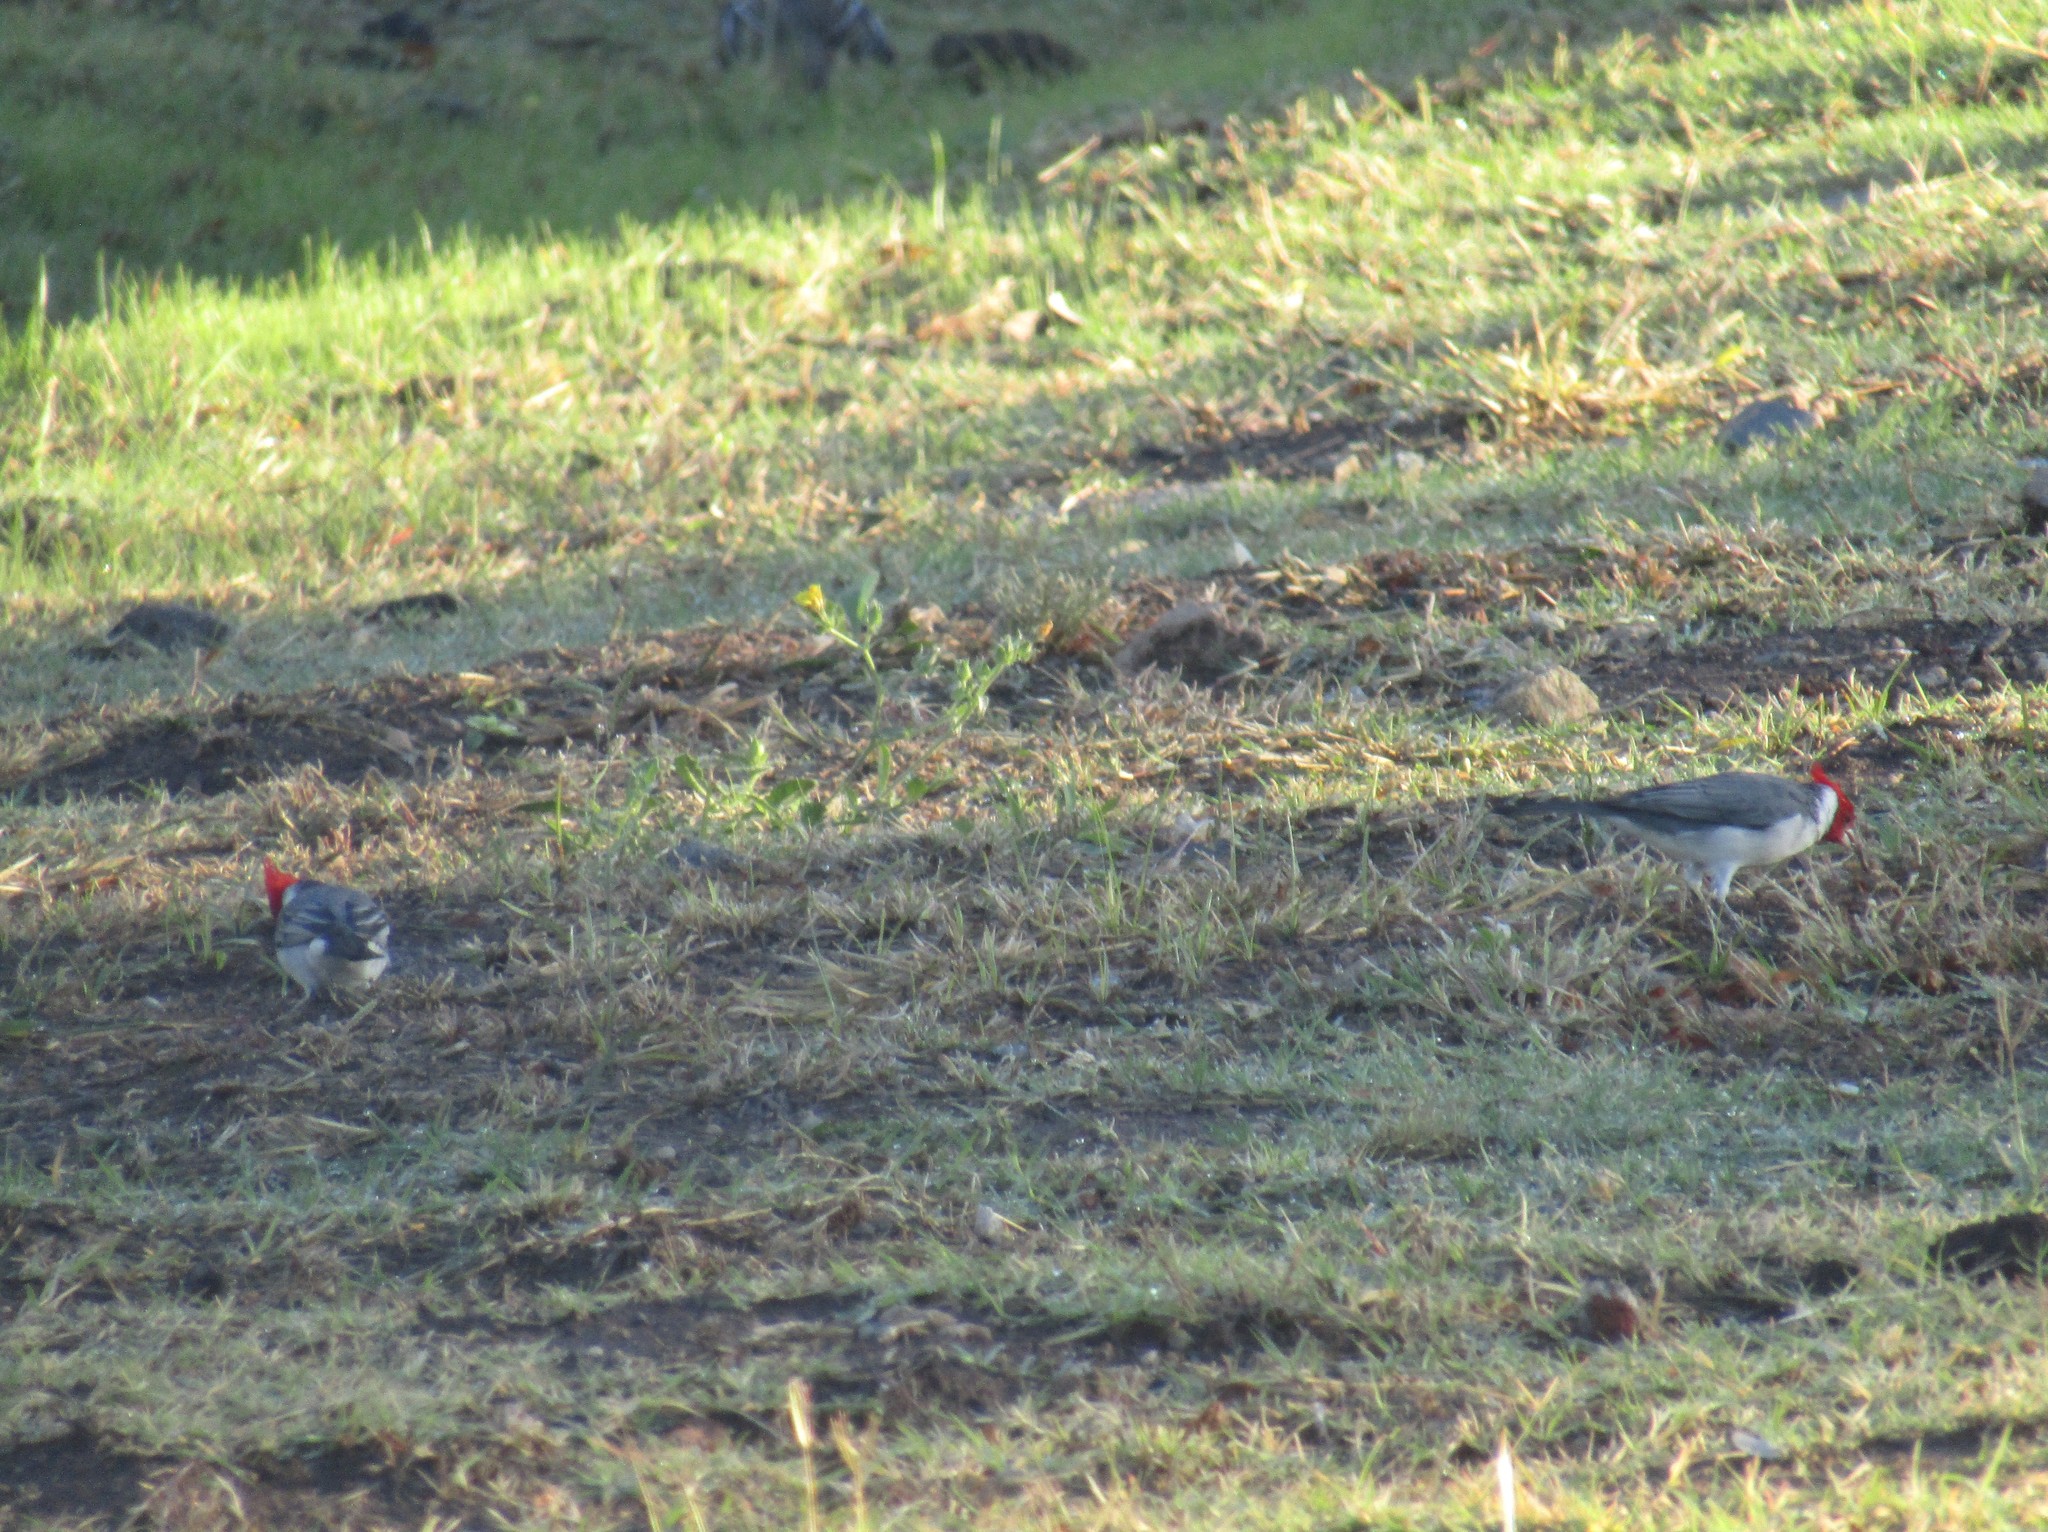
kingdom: Animalia
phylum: Chordata
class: Aves
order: Passeriformes
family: Thraupidae
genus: Paroaria
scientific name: Paroaria coronata
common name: Red-crested cardinal
